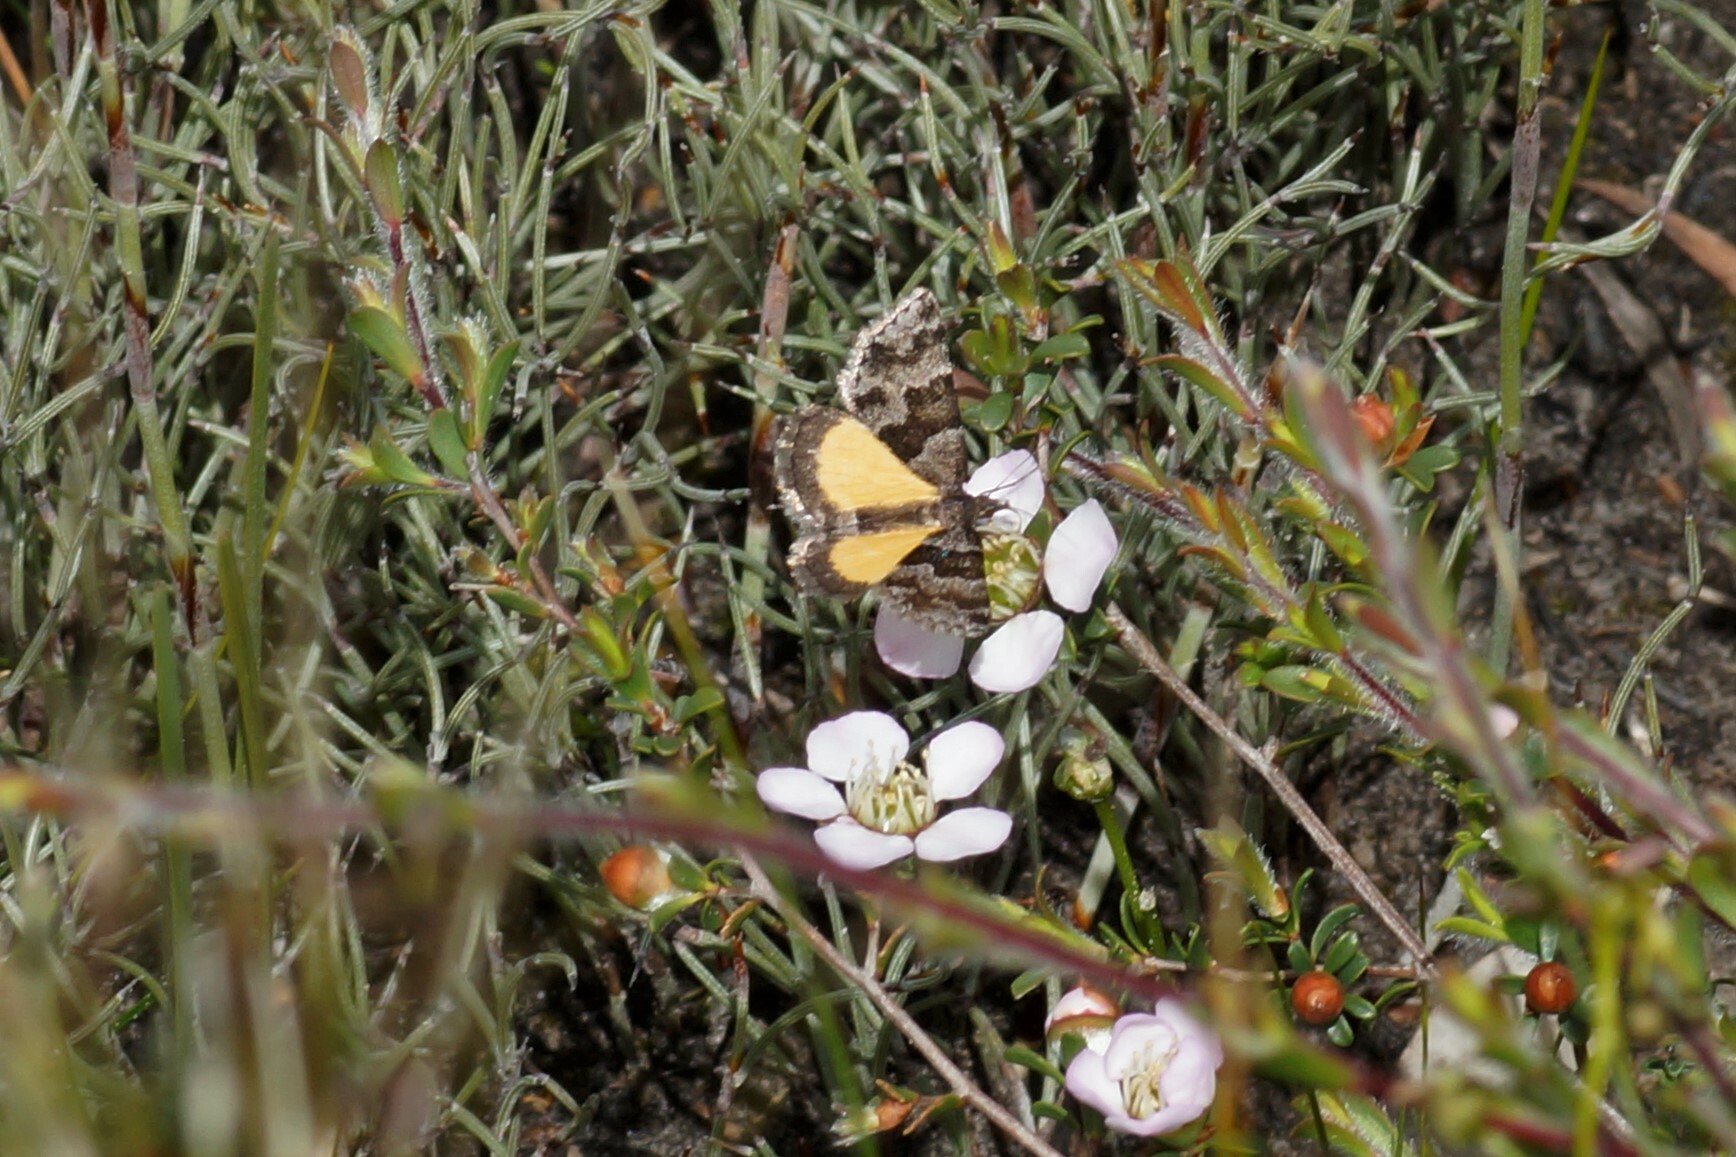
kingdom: Animalia
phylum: Arthropoda
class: Insecta
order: Lepidoptera
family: Geometridae
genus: Dichromodes
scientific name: Dichromodes ainaria
